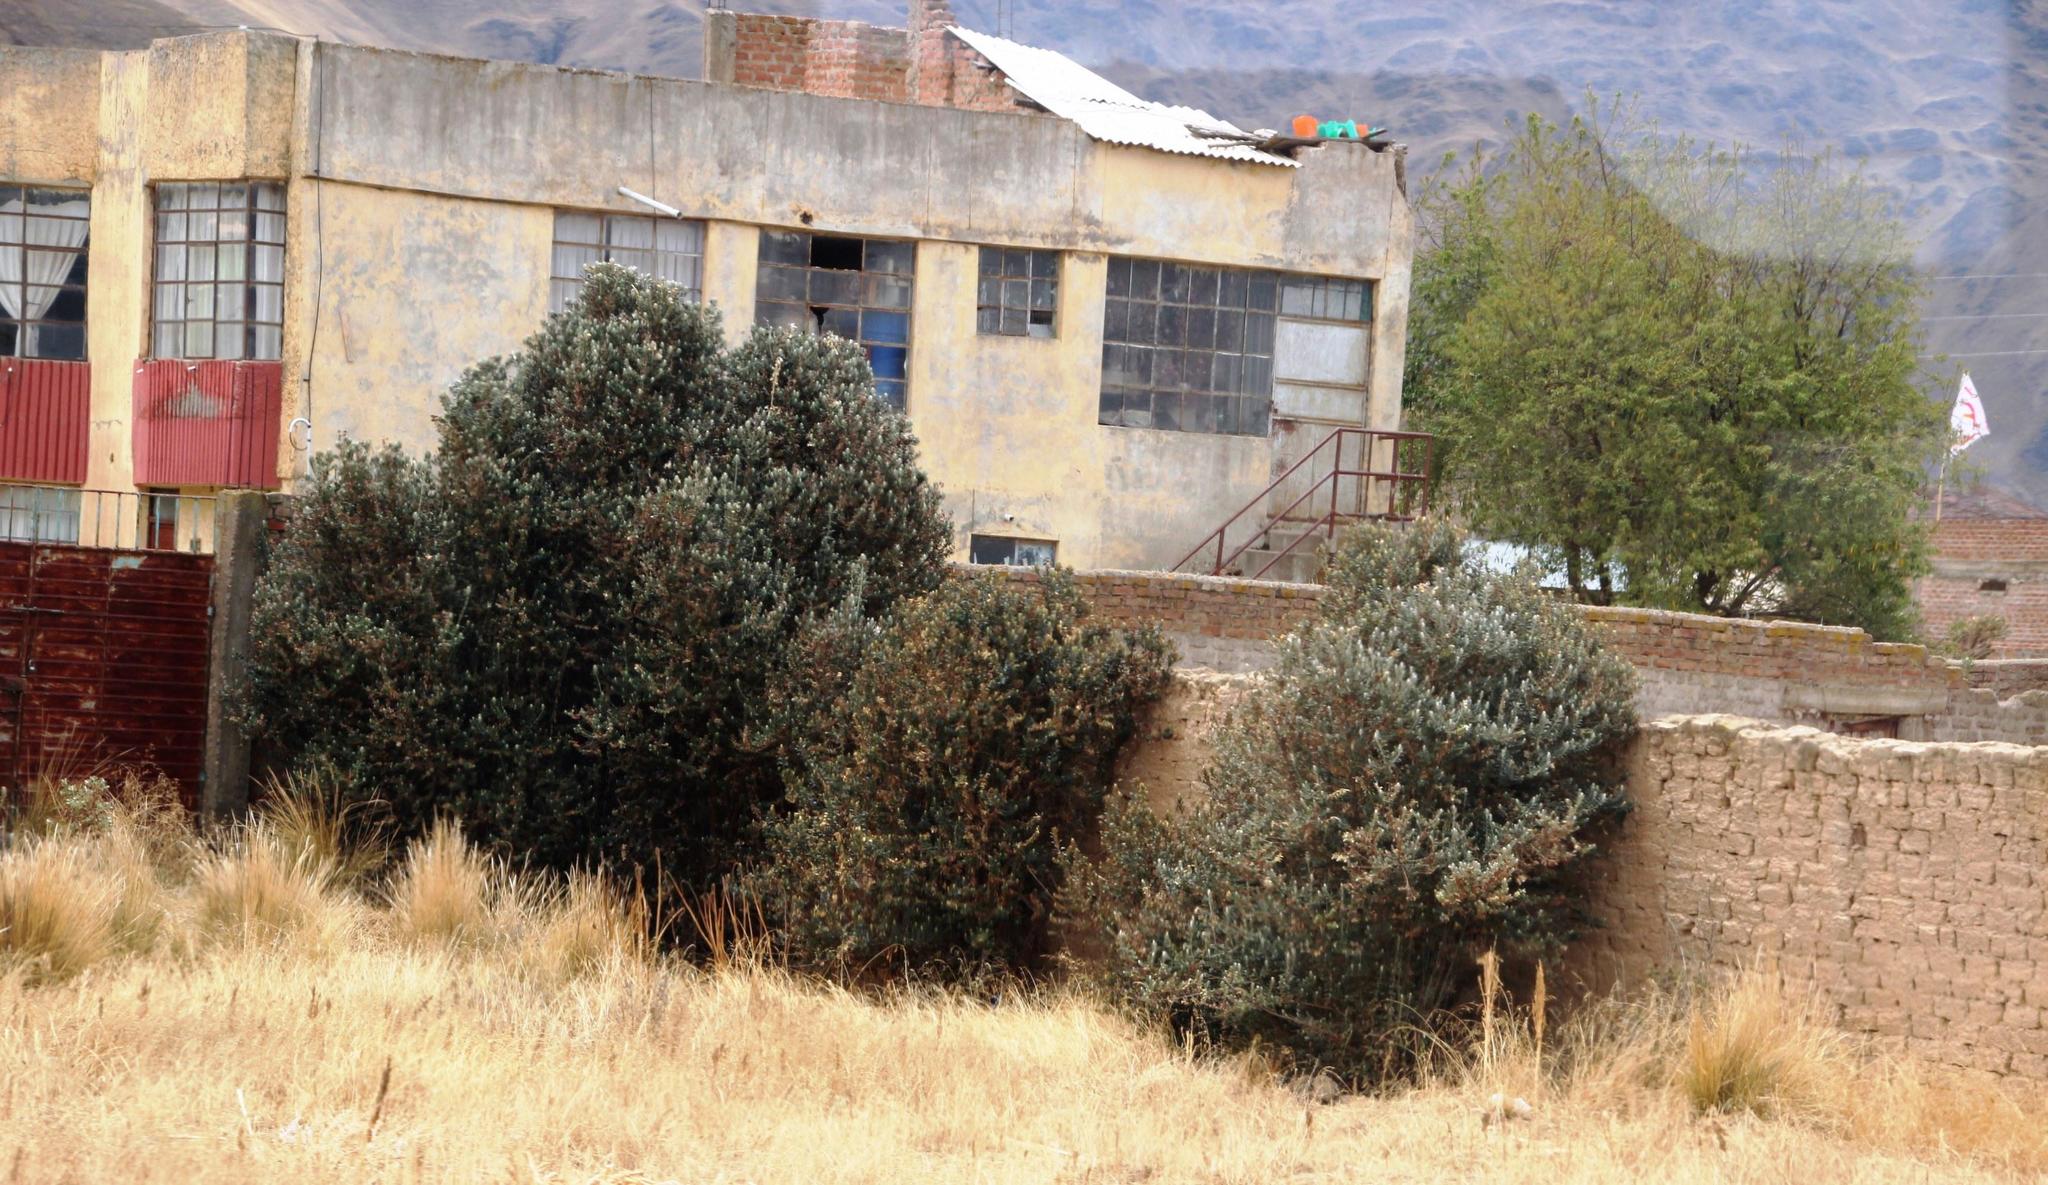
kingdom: Plantae
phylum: Tracheophyta
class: Magnoliopsida
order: Lamiales
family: Scrophulariaceae
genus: Buddleja
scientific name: Buddleja coriacea
